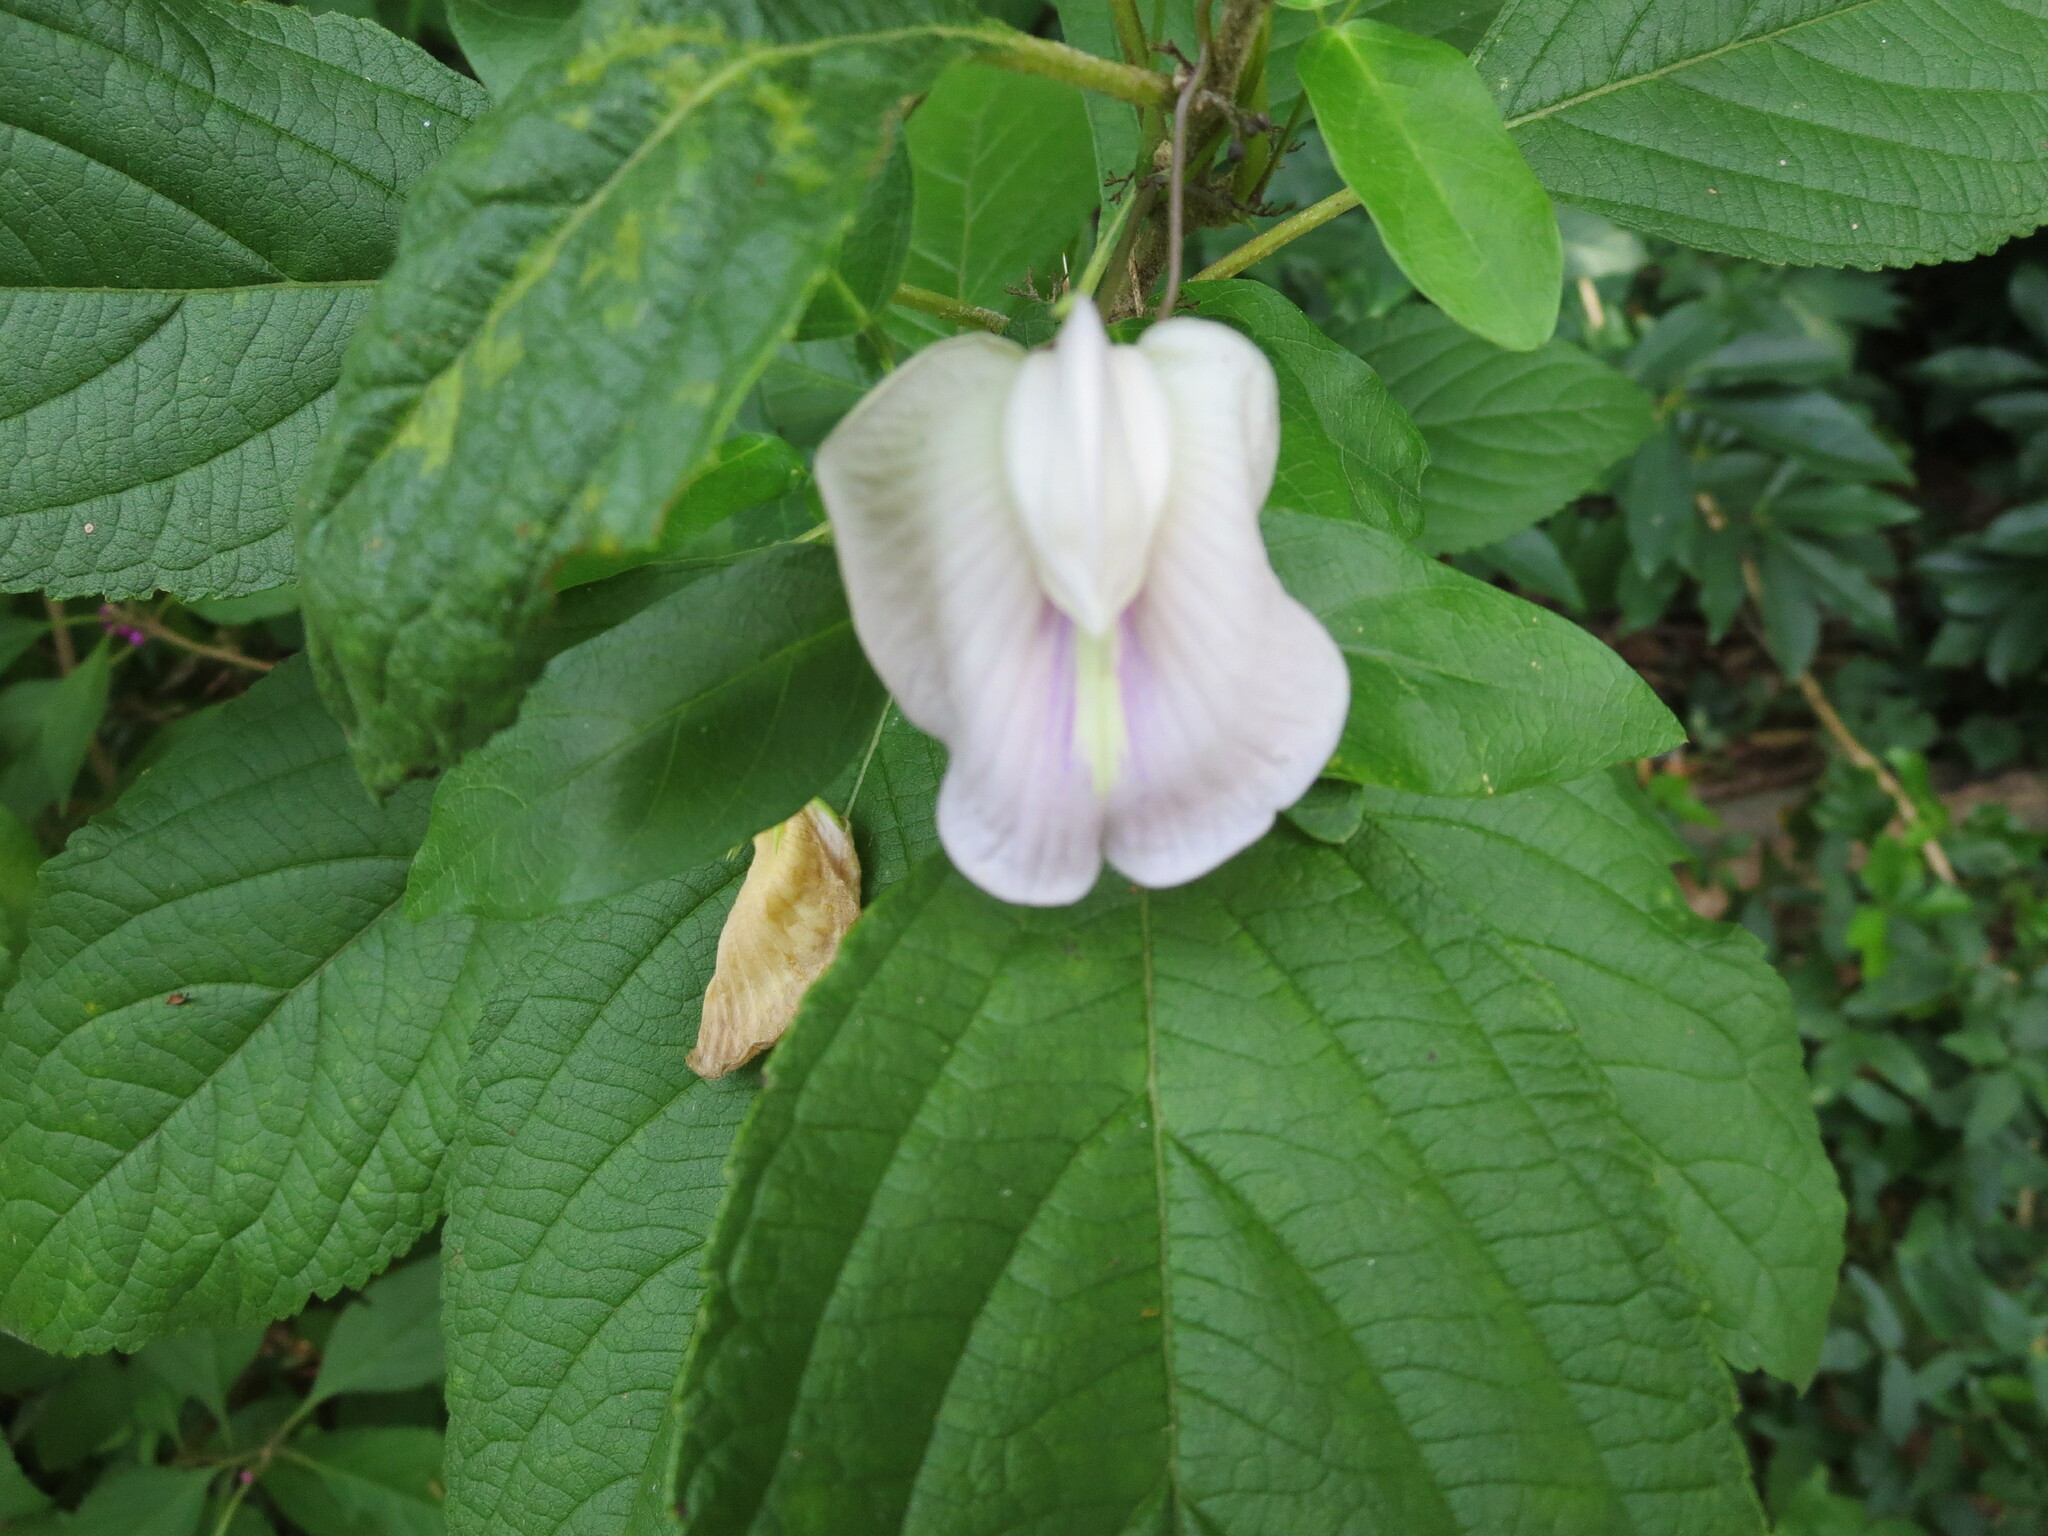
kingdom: Plantae
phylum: Tracheophyta
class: Magnoliopsida
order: Fabales
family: Fabaceae
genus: Centrosema
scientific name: Centrosema virginianum
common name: Butterfly-pea
